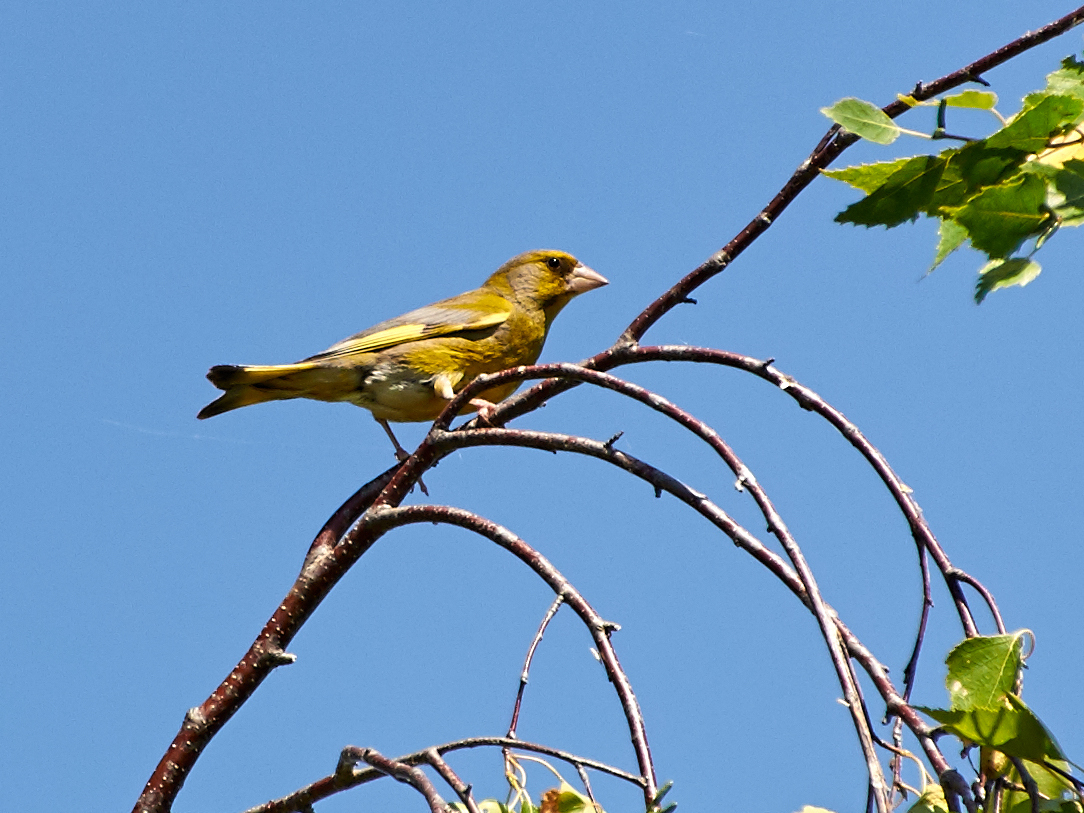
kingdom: Plantae
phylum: Tracheophyta
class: Liliopsida
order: Poales
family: Poaceae
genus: Chloris
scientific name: Chloris chloris
